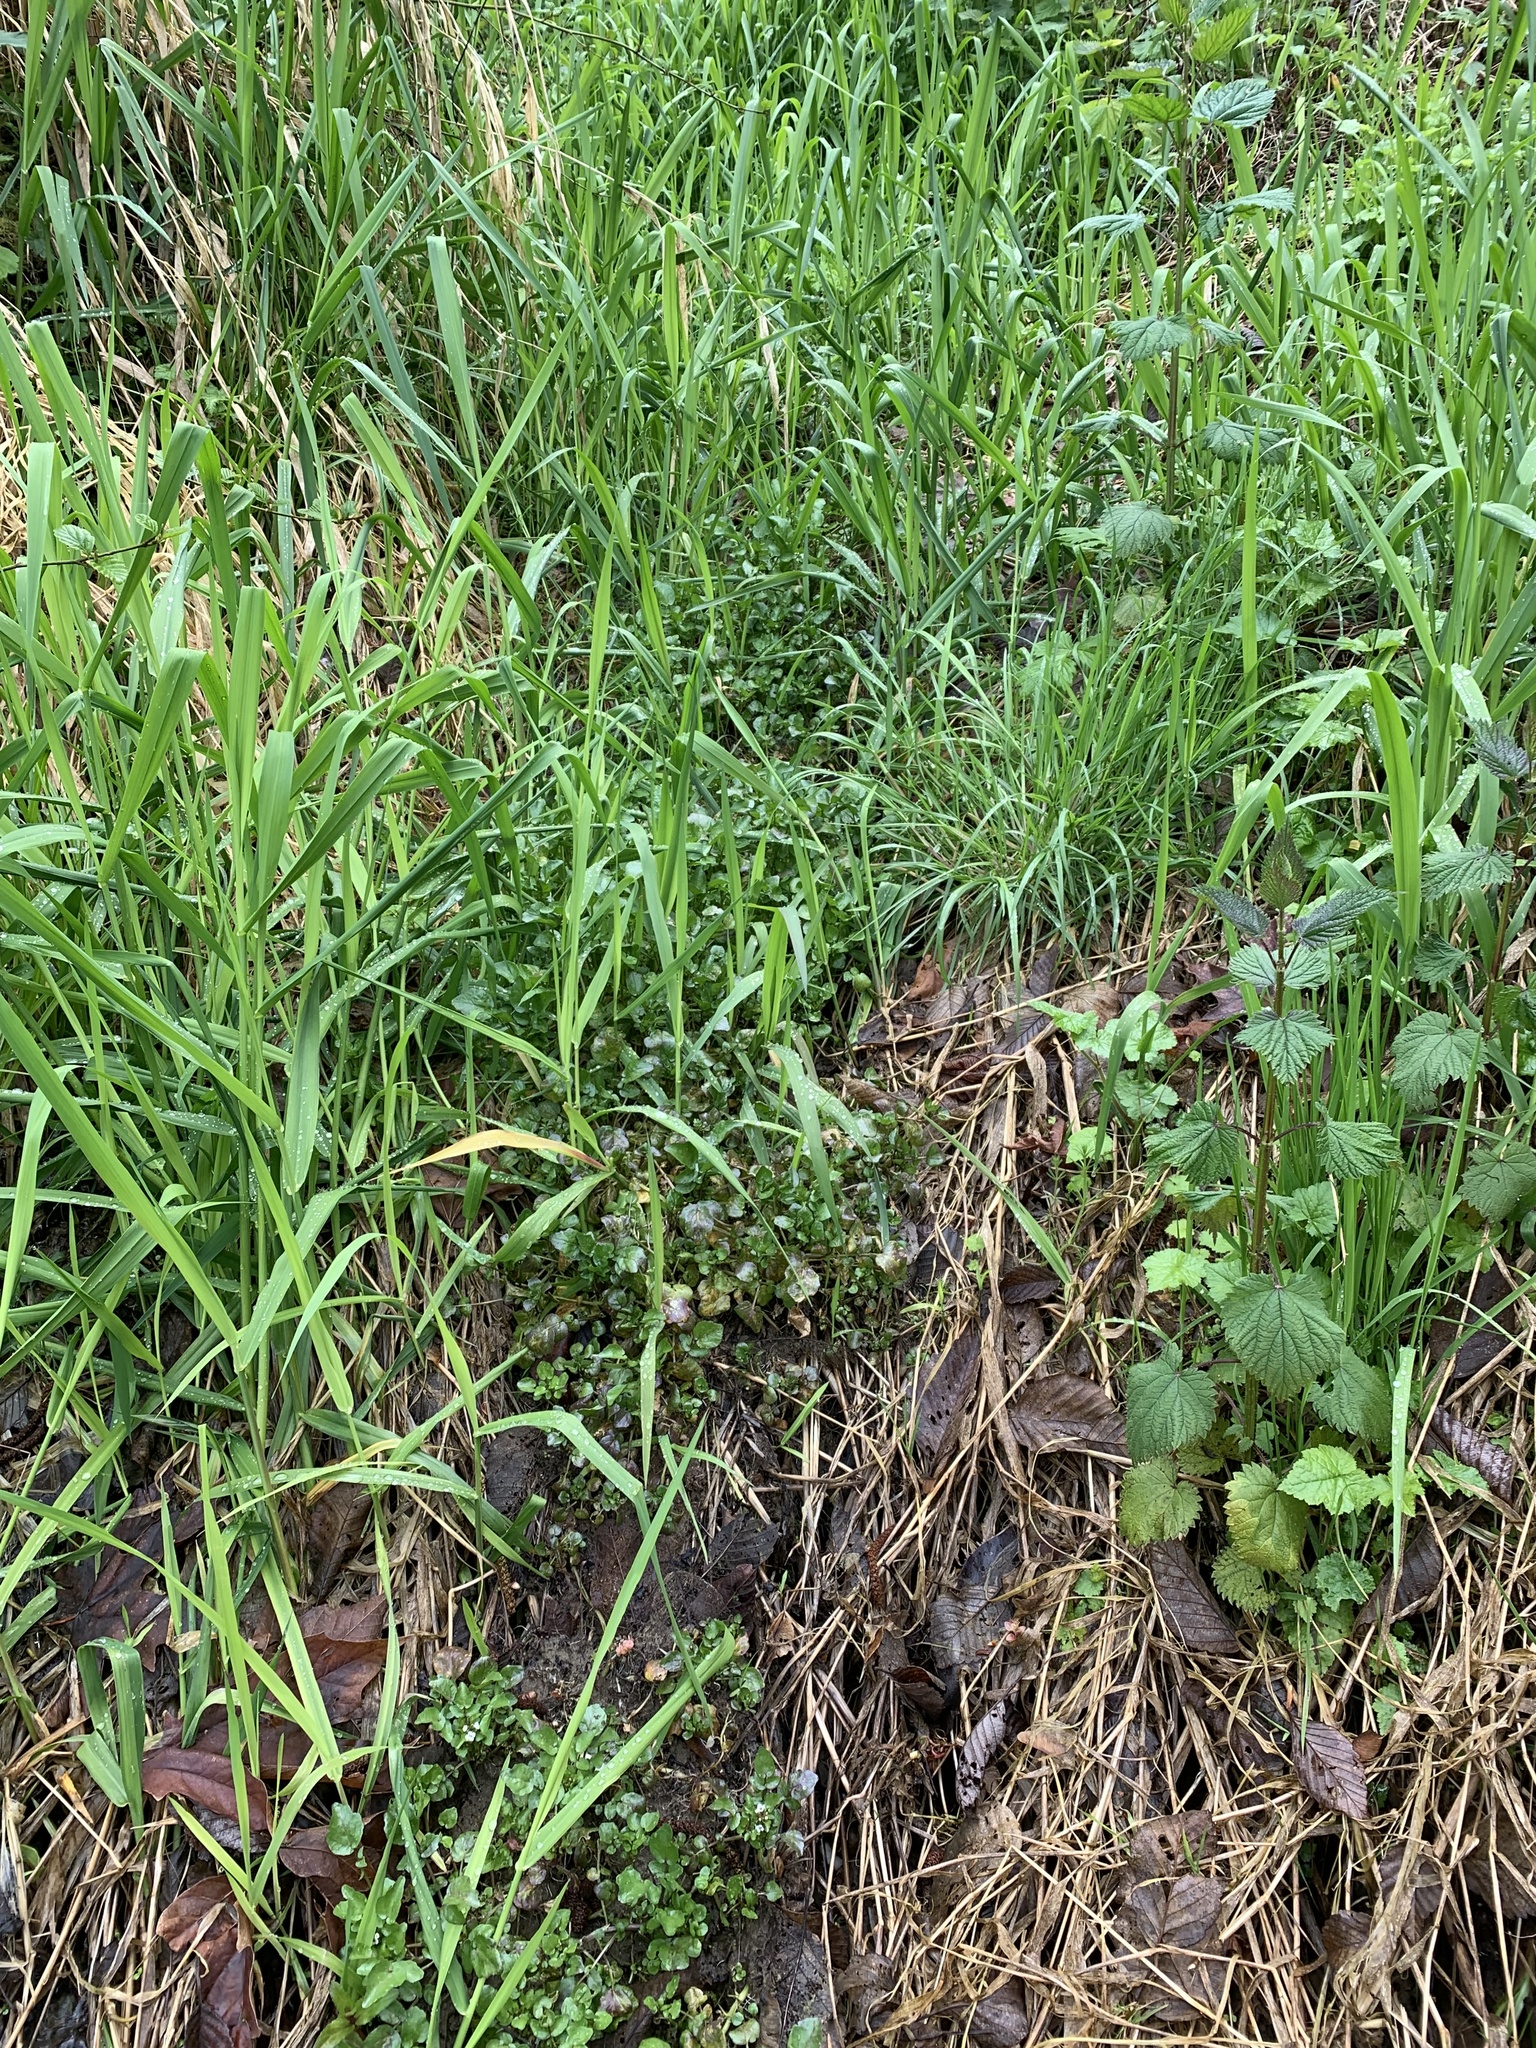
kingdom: Plantae
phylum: Tracheophyta
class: Magnoliopsida
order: Brassicales
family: Brassicaceae
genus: Nasturtium
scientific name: Nasturtium officinale
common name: Watercress
